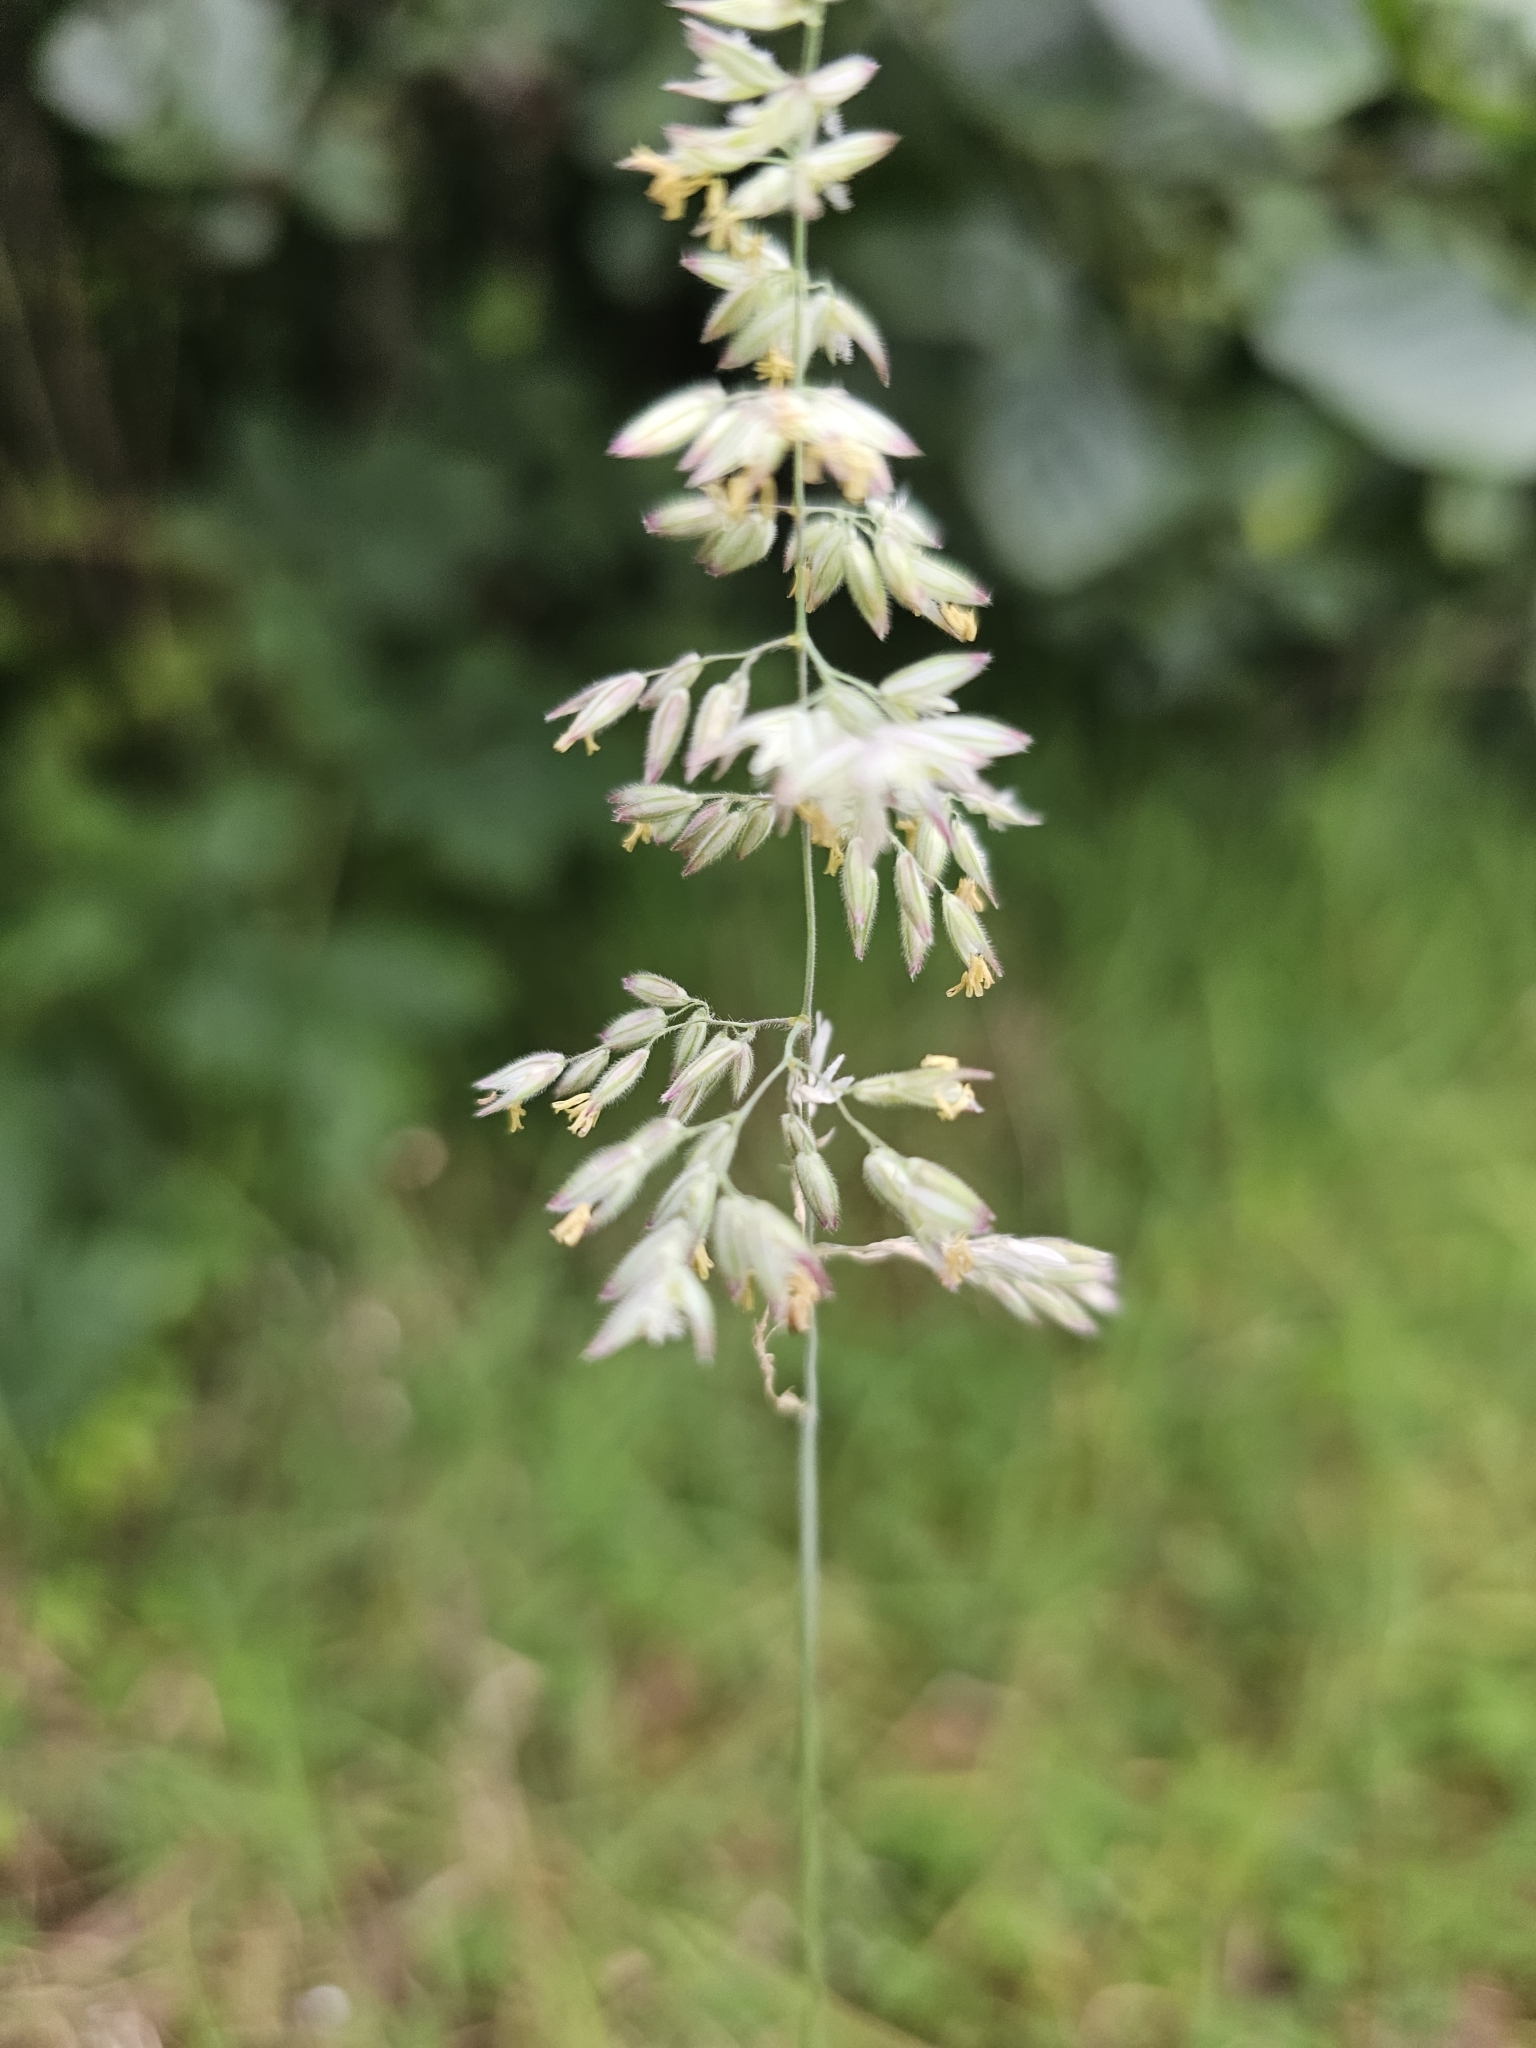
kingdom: Plantae
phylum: Tracheophyta
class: Liliopsida
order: Poales
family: Poaceae
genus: Holcus
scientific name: Holcus lanatus
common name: Yorkshire-fog
